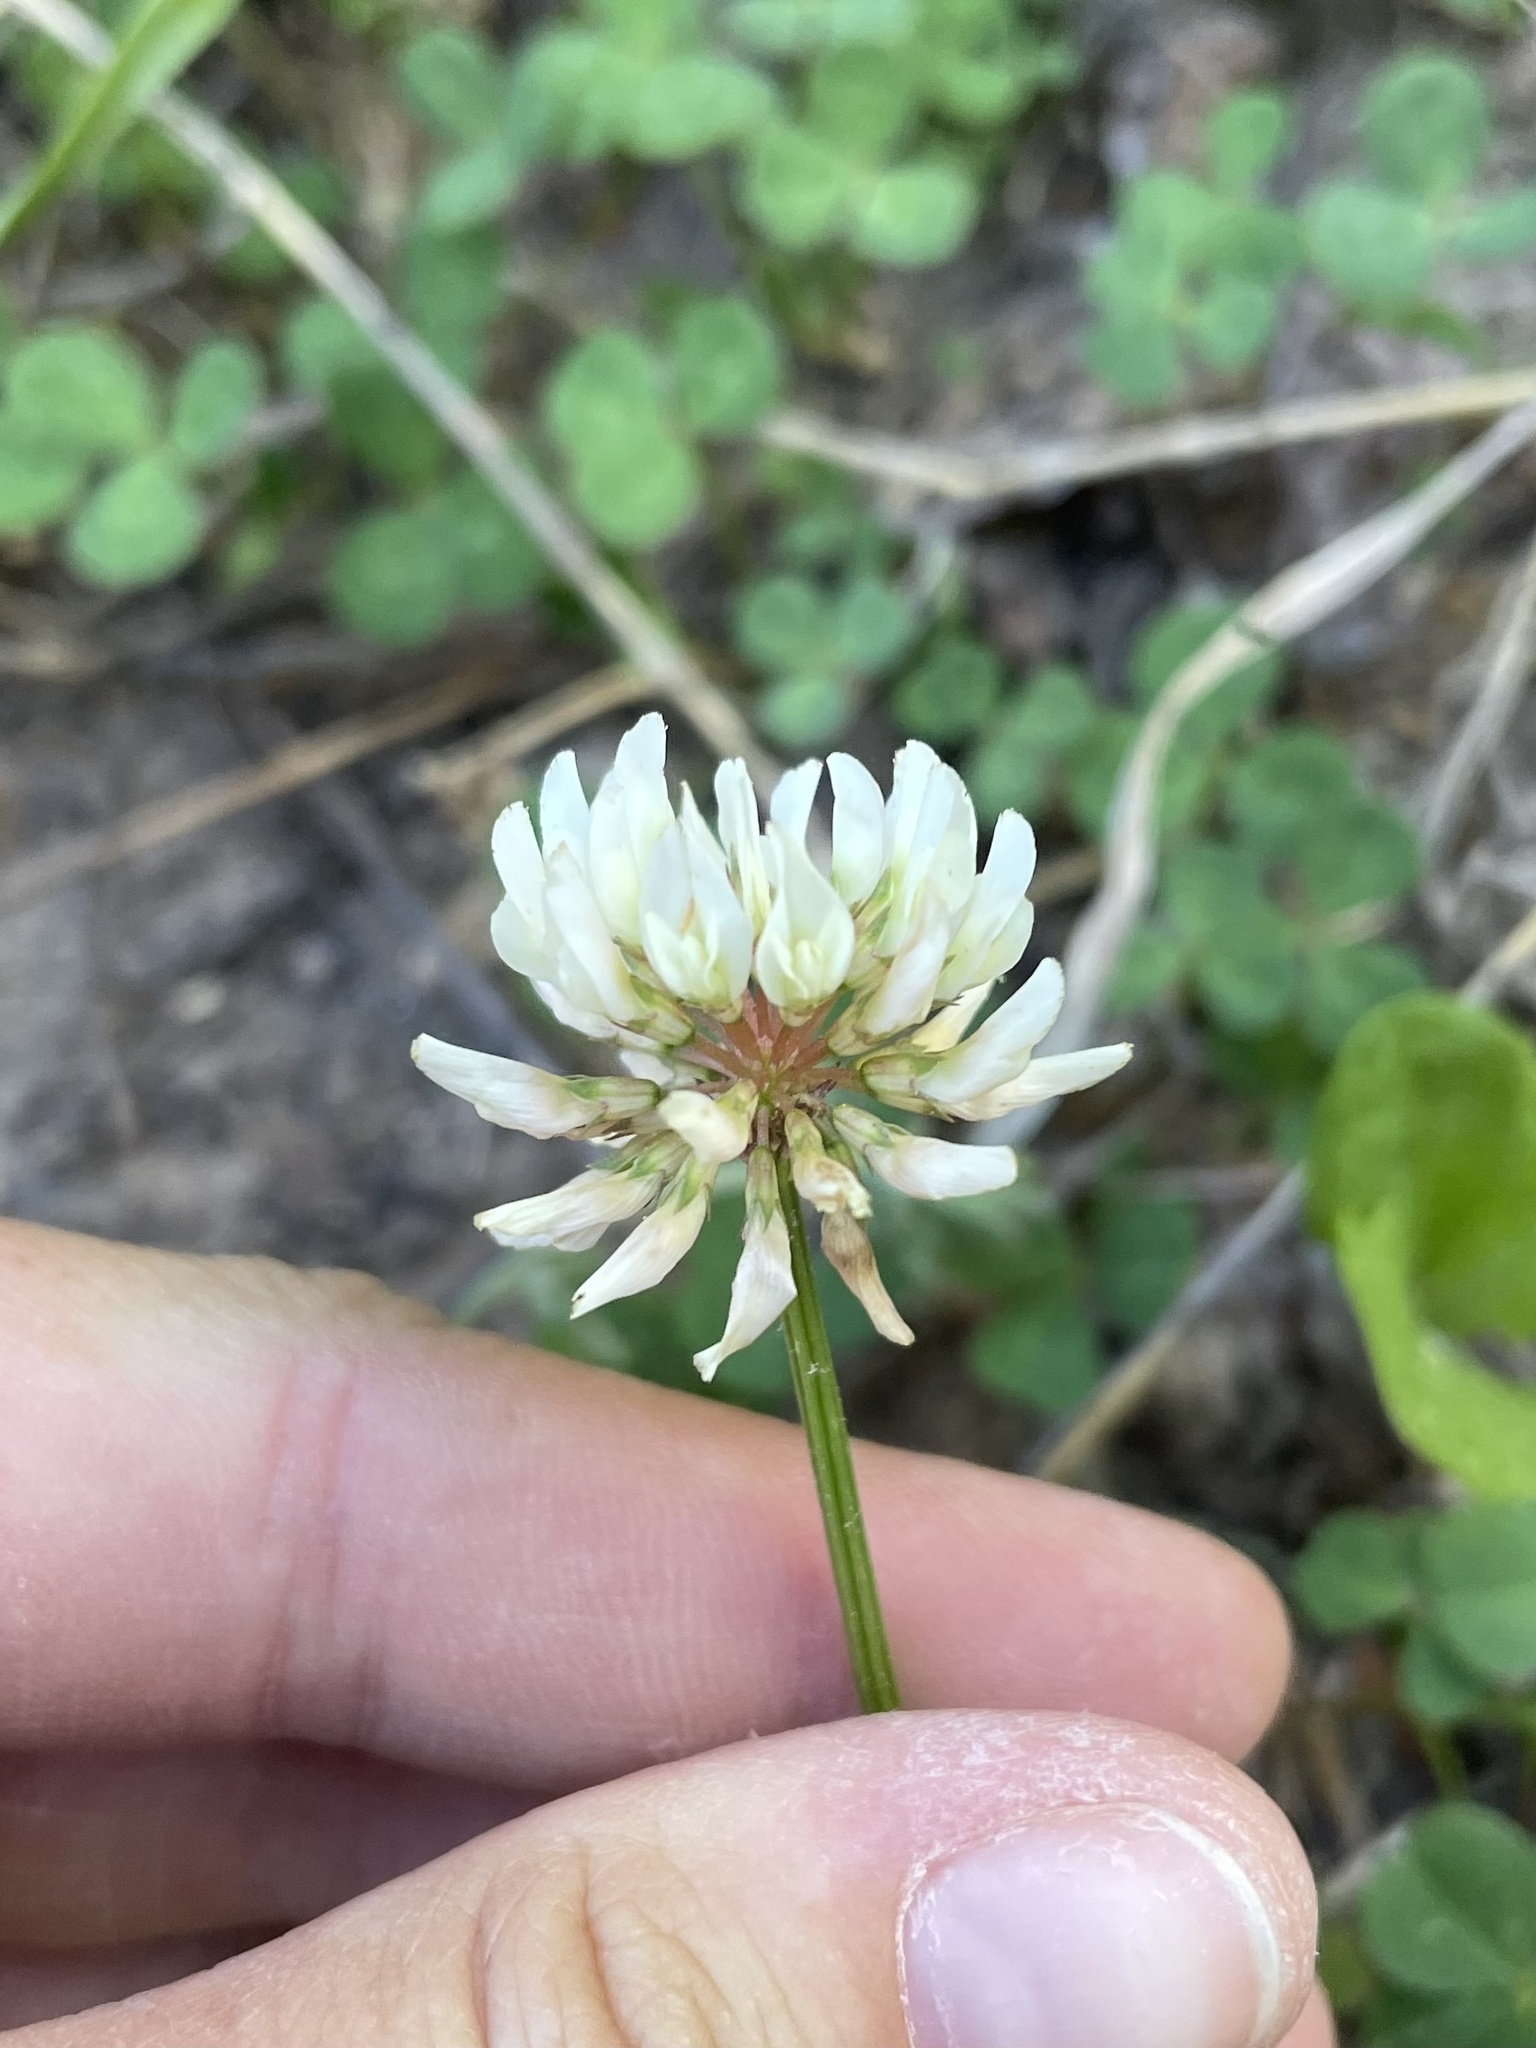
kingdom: Plantae
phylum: Tracheophyta
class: Magnoliopsida
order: Fabales
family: Fabaceae
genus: Trifolium
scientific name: Trifolium repens
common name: White clover
